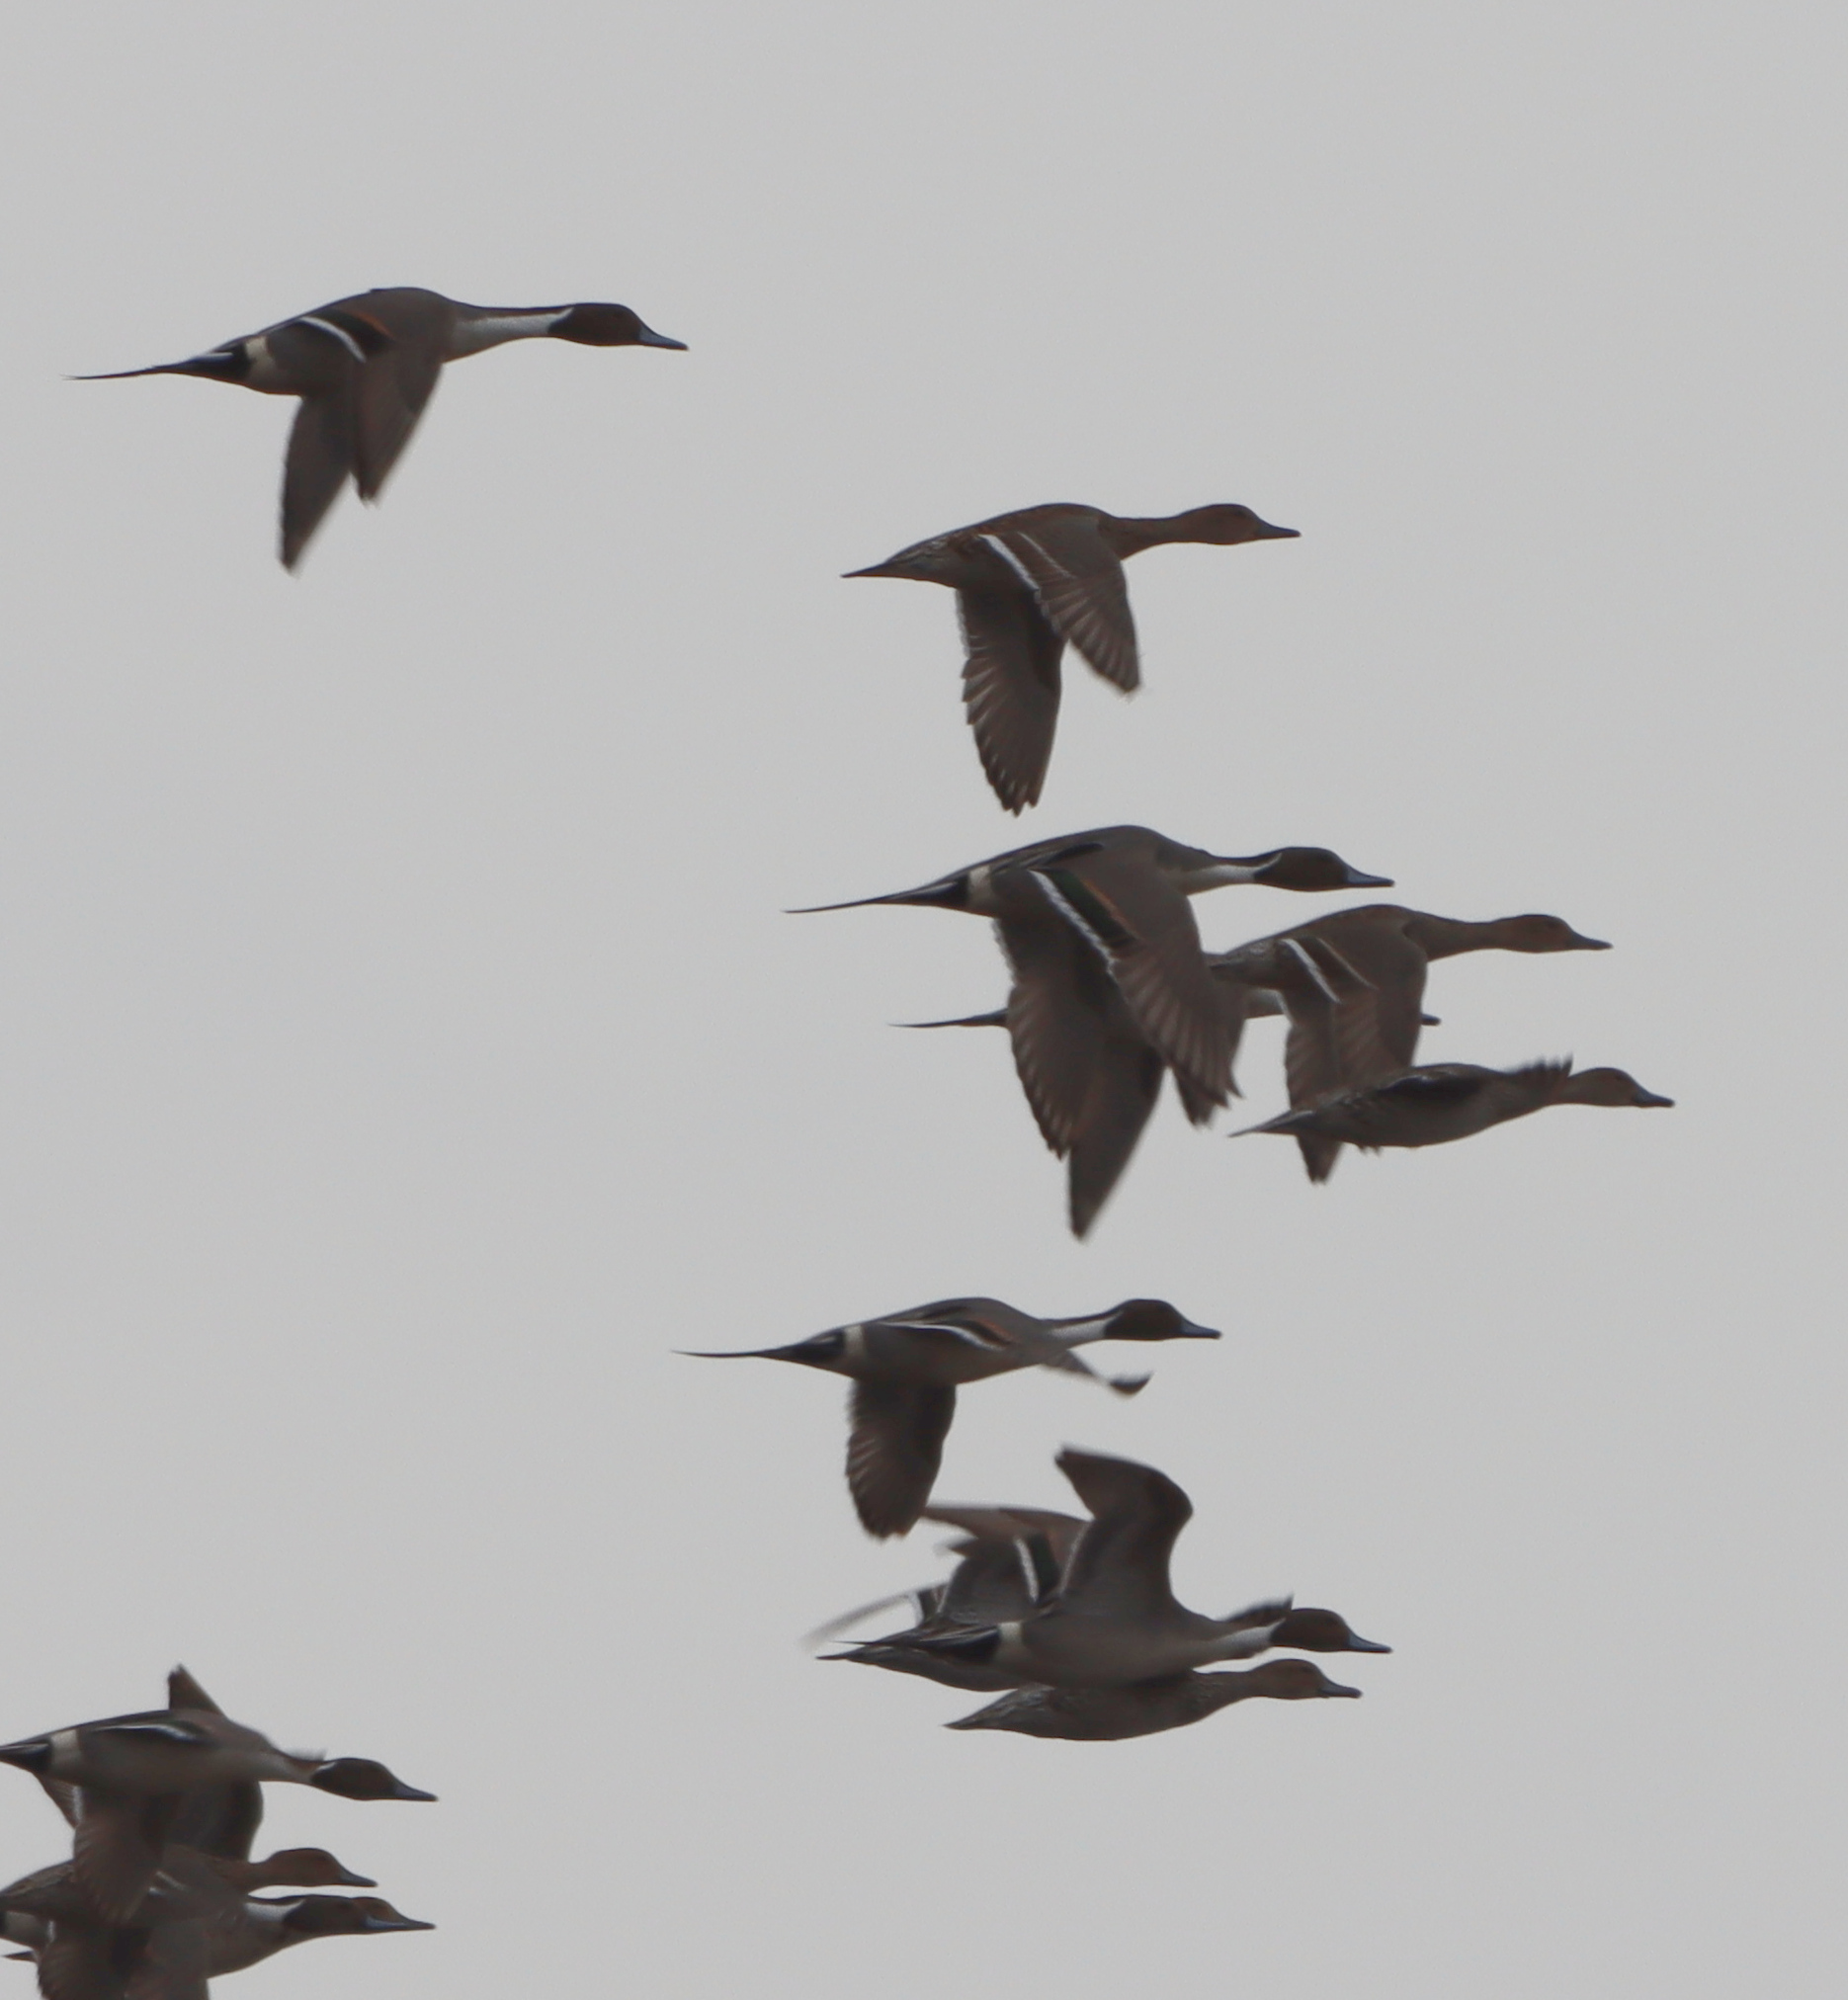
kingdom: Animalia
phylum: Chordata
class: Aves
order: Anseriformes
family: Anatidae
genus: Anas
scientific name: Anas acuta
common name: Northern pintail
